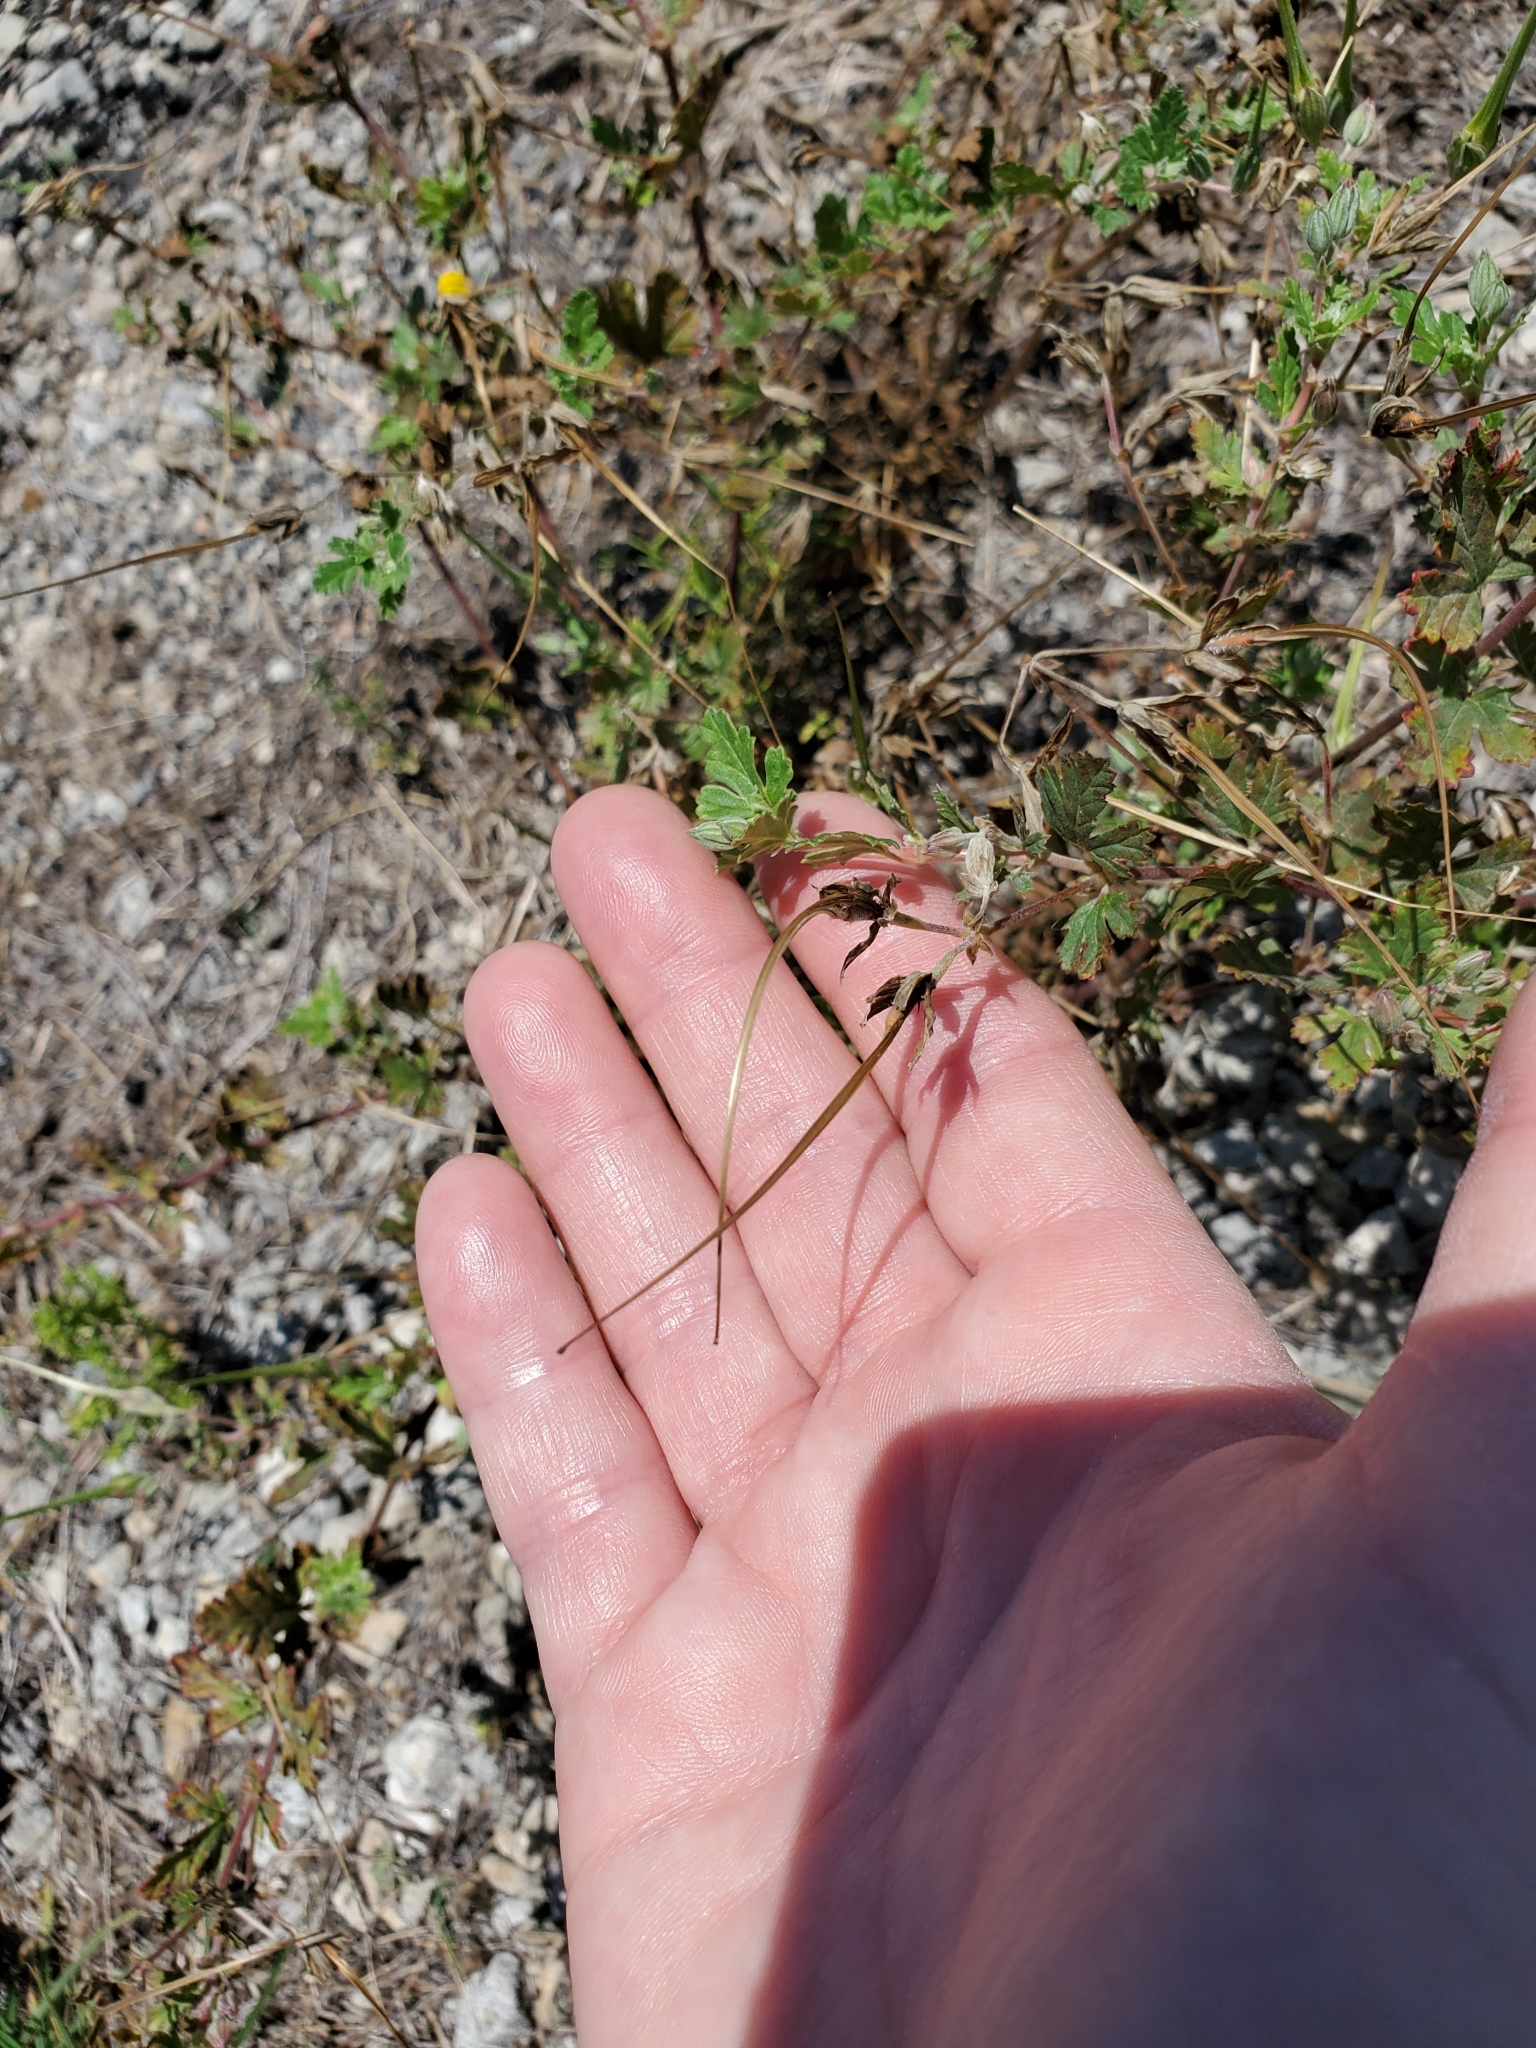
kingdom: Plantae
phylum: Tracheophyta
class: Magnoliopsida
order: Geraniales
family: Geraniaceae
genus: Erodium
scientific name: Erodium texanum
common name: Texas stork's-bill
